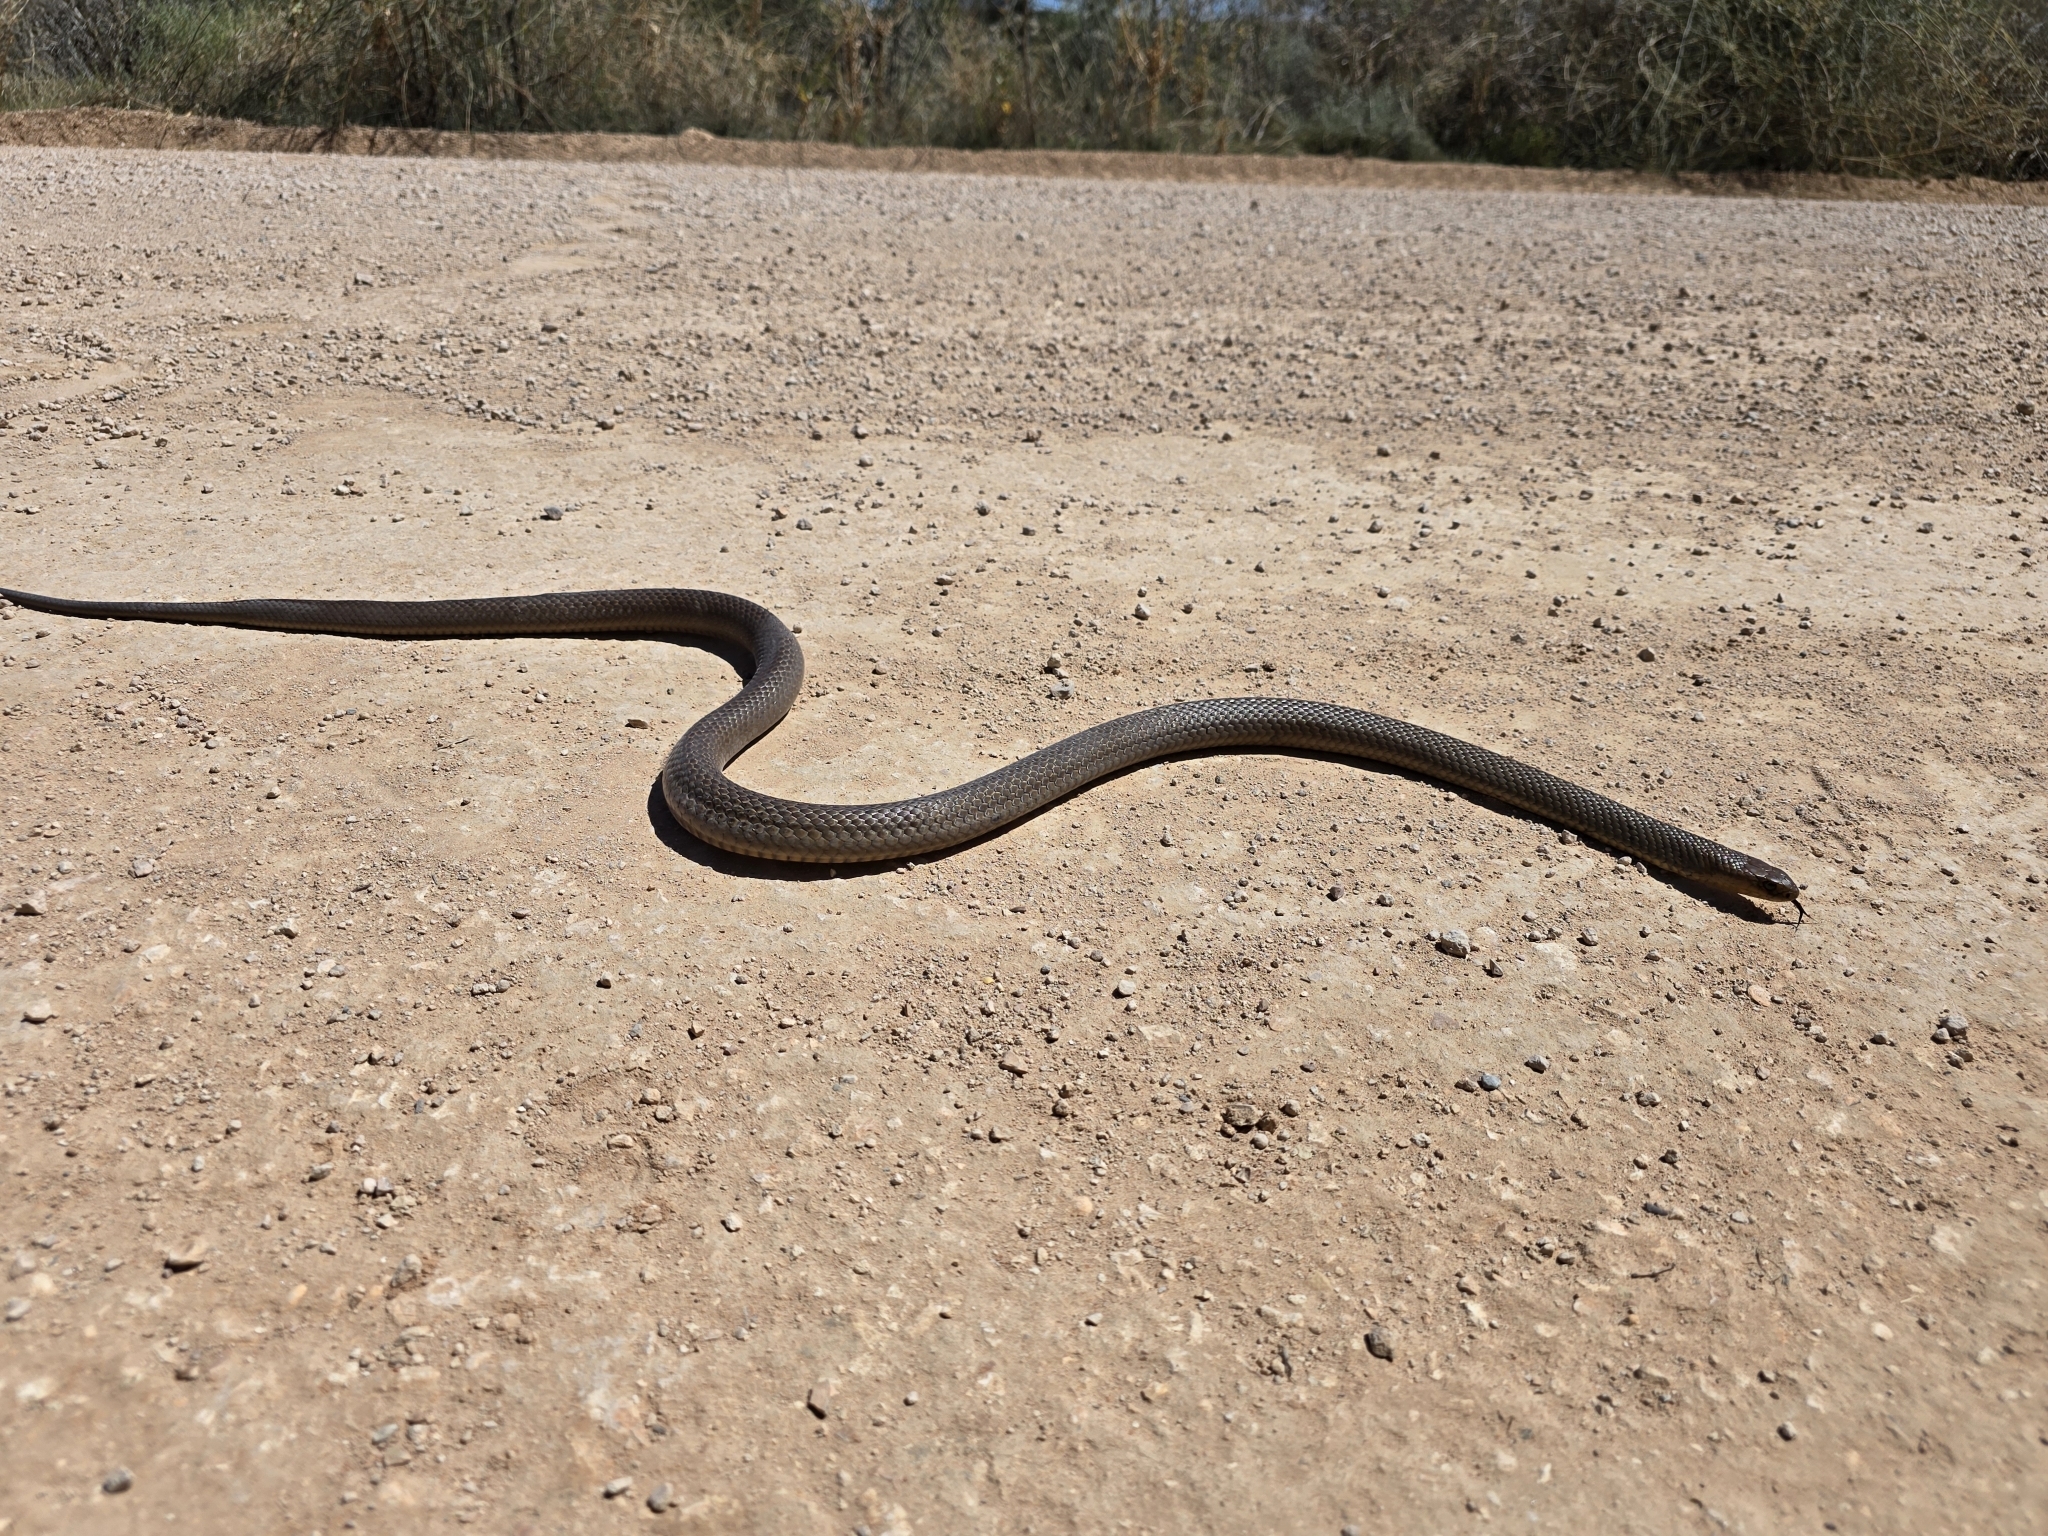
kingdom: Animalia
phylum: Chordata
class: Squamata
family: Elapidae
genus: Pseudonaja
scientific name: Pseudonaja textilis
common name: Eastern brown snake
